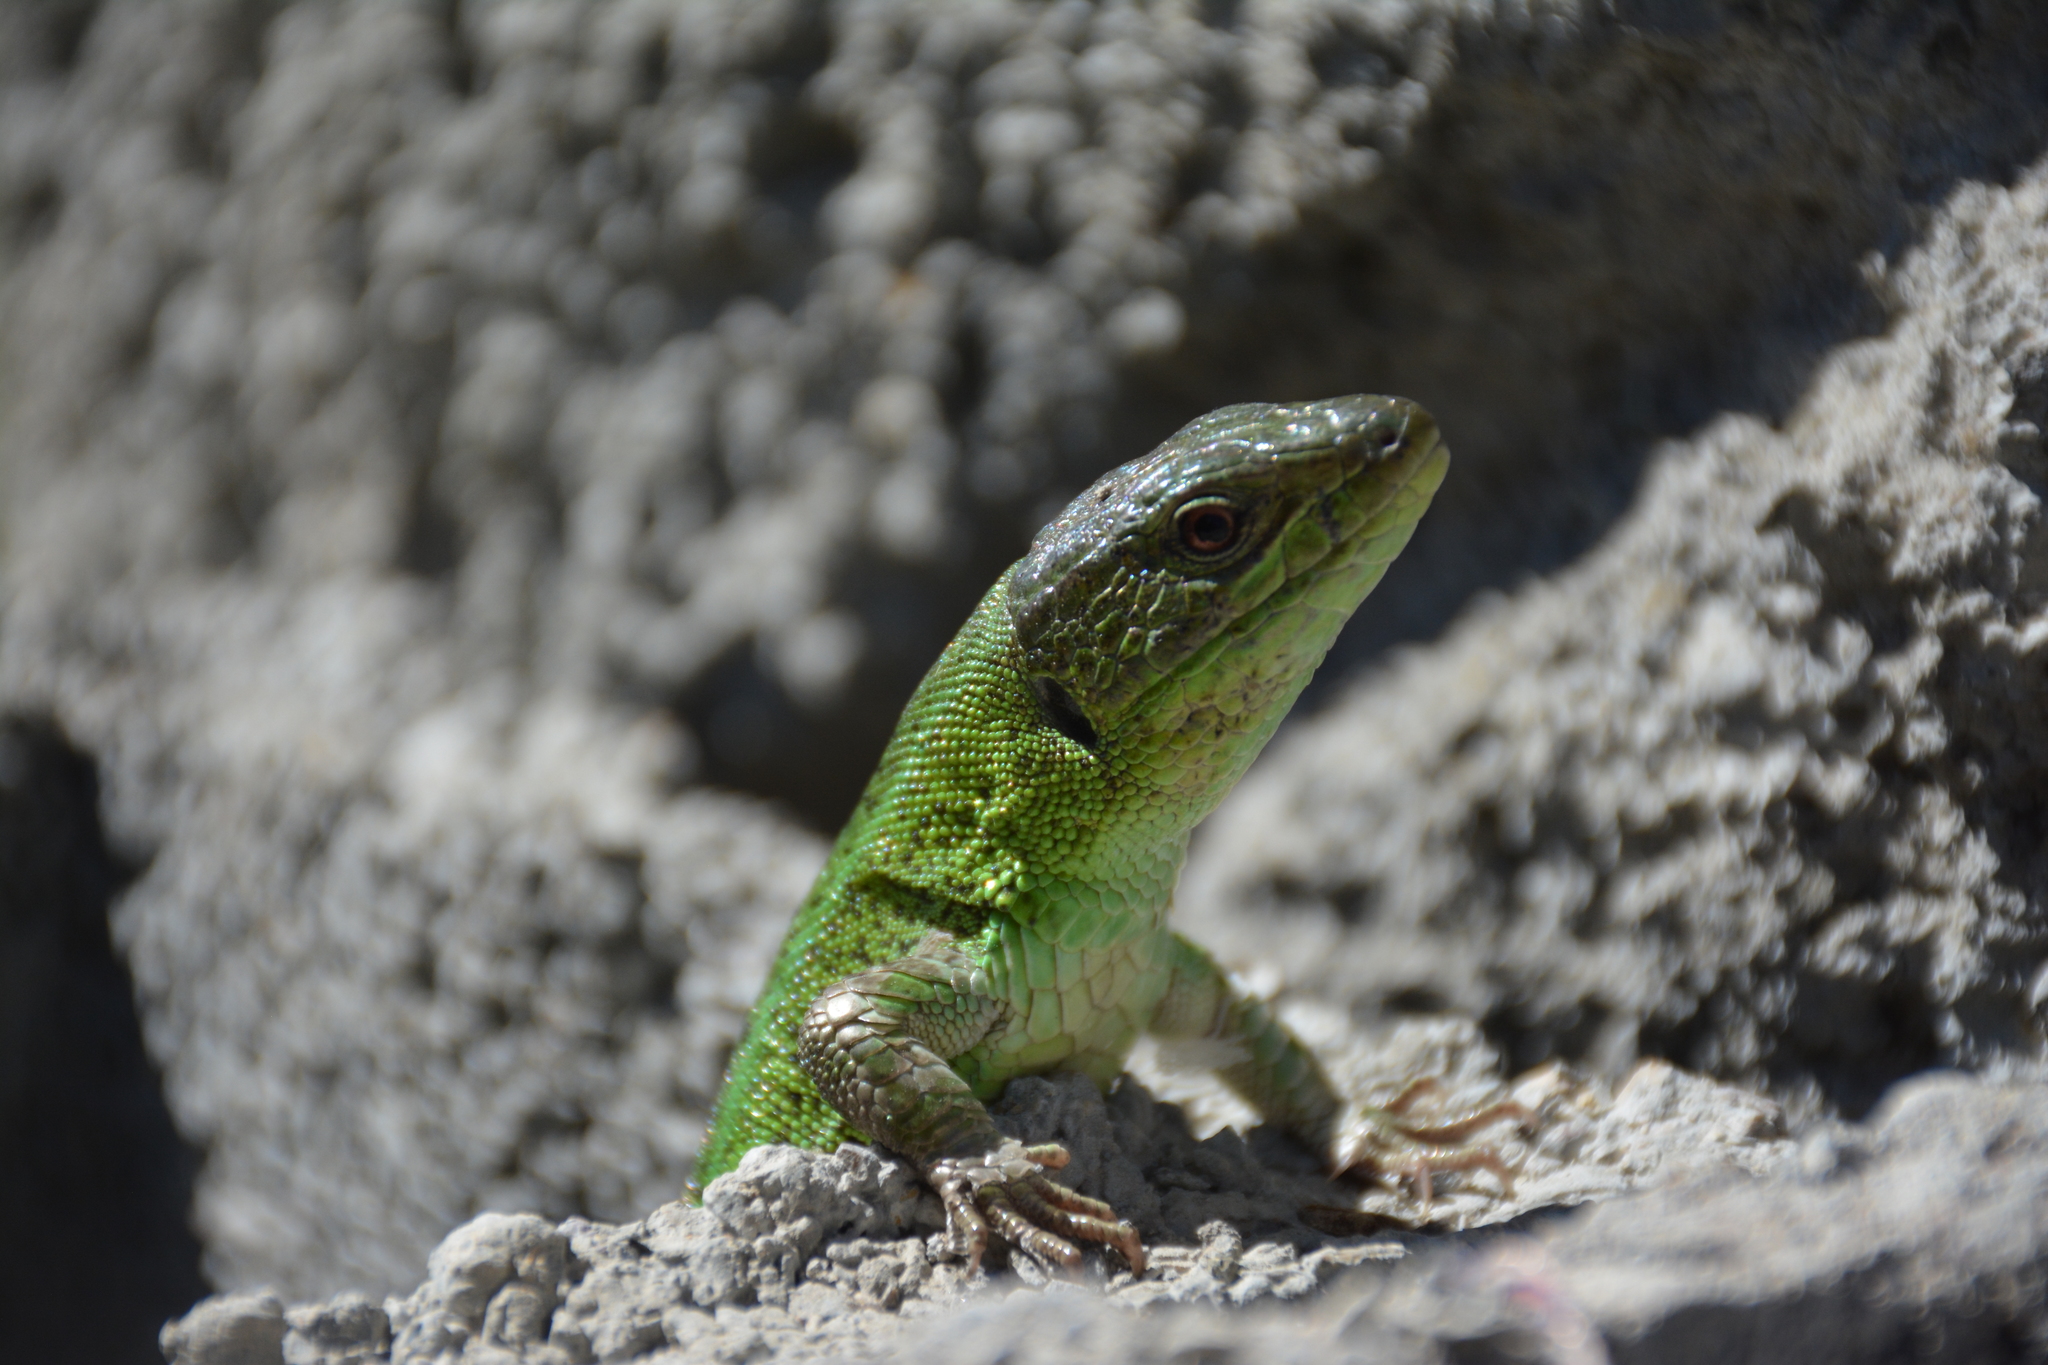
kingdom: Animalia
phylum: Chordata
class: Squamata
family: Lacertidae
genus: Lacerta
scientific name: Lacerta strigata
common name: Caspian green lizard
